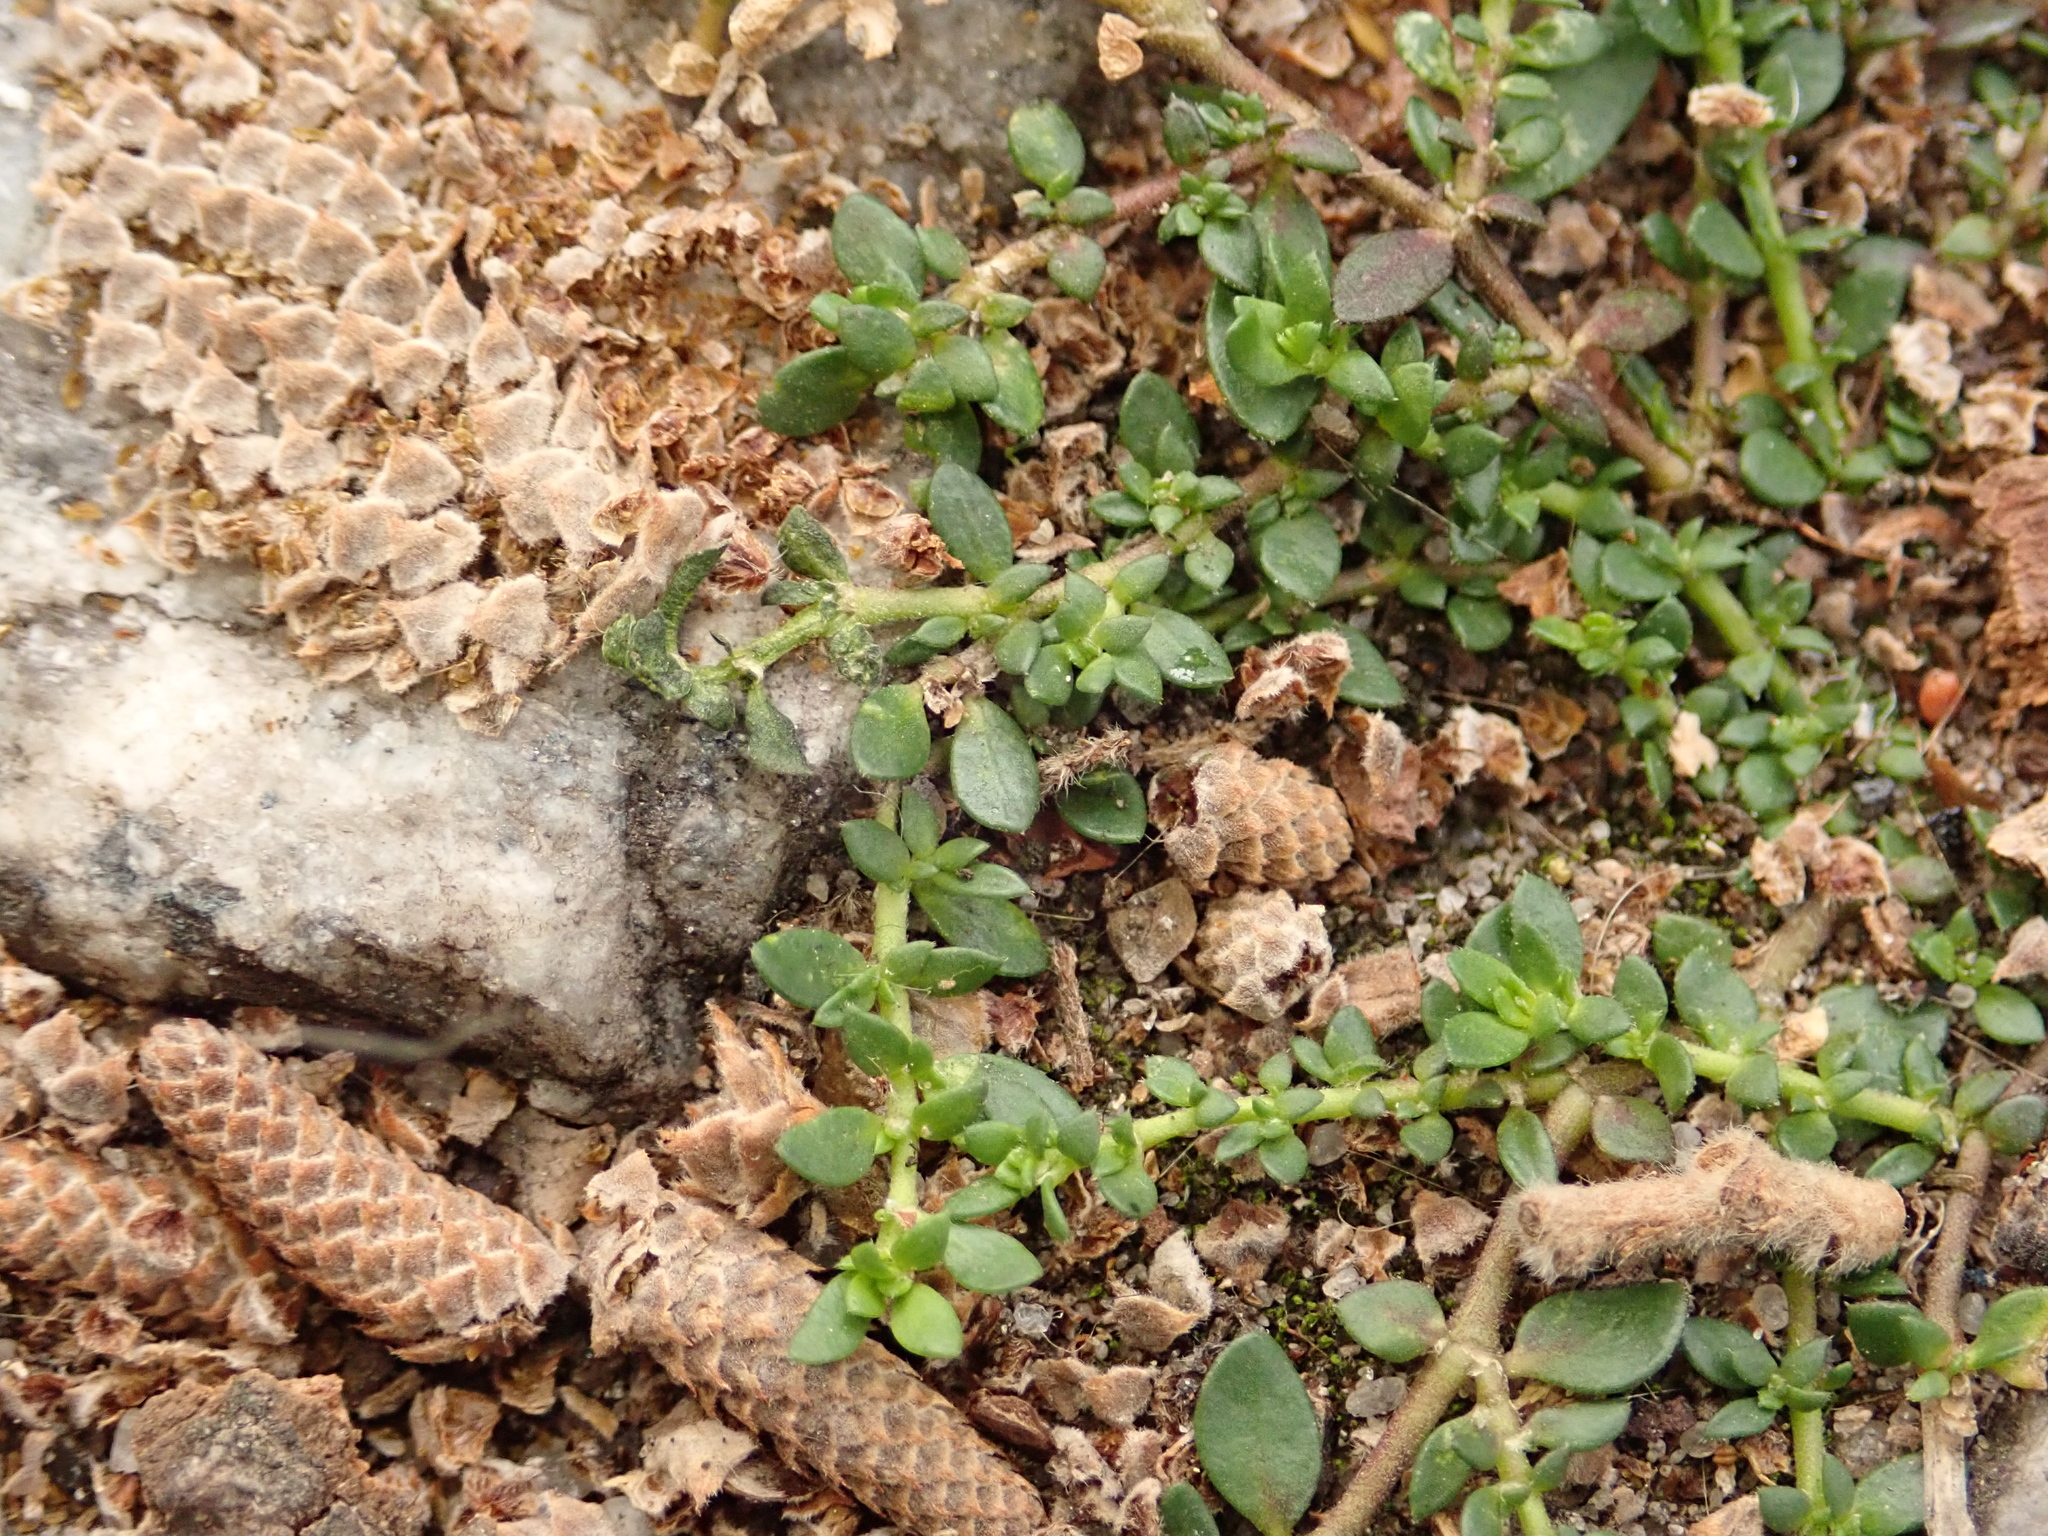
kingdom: Plantae
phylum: Tracheophyta
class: Magnoliopsida
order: Caryophyllales
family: Caryophyllaceae
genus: Herniaria
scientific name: Herniaria glabra
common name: Smooth rupturewort
